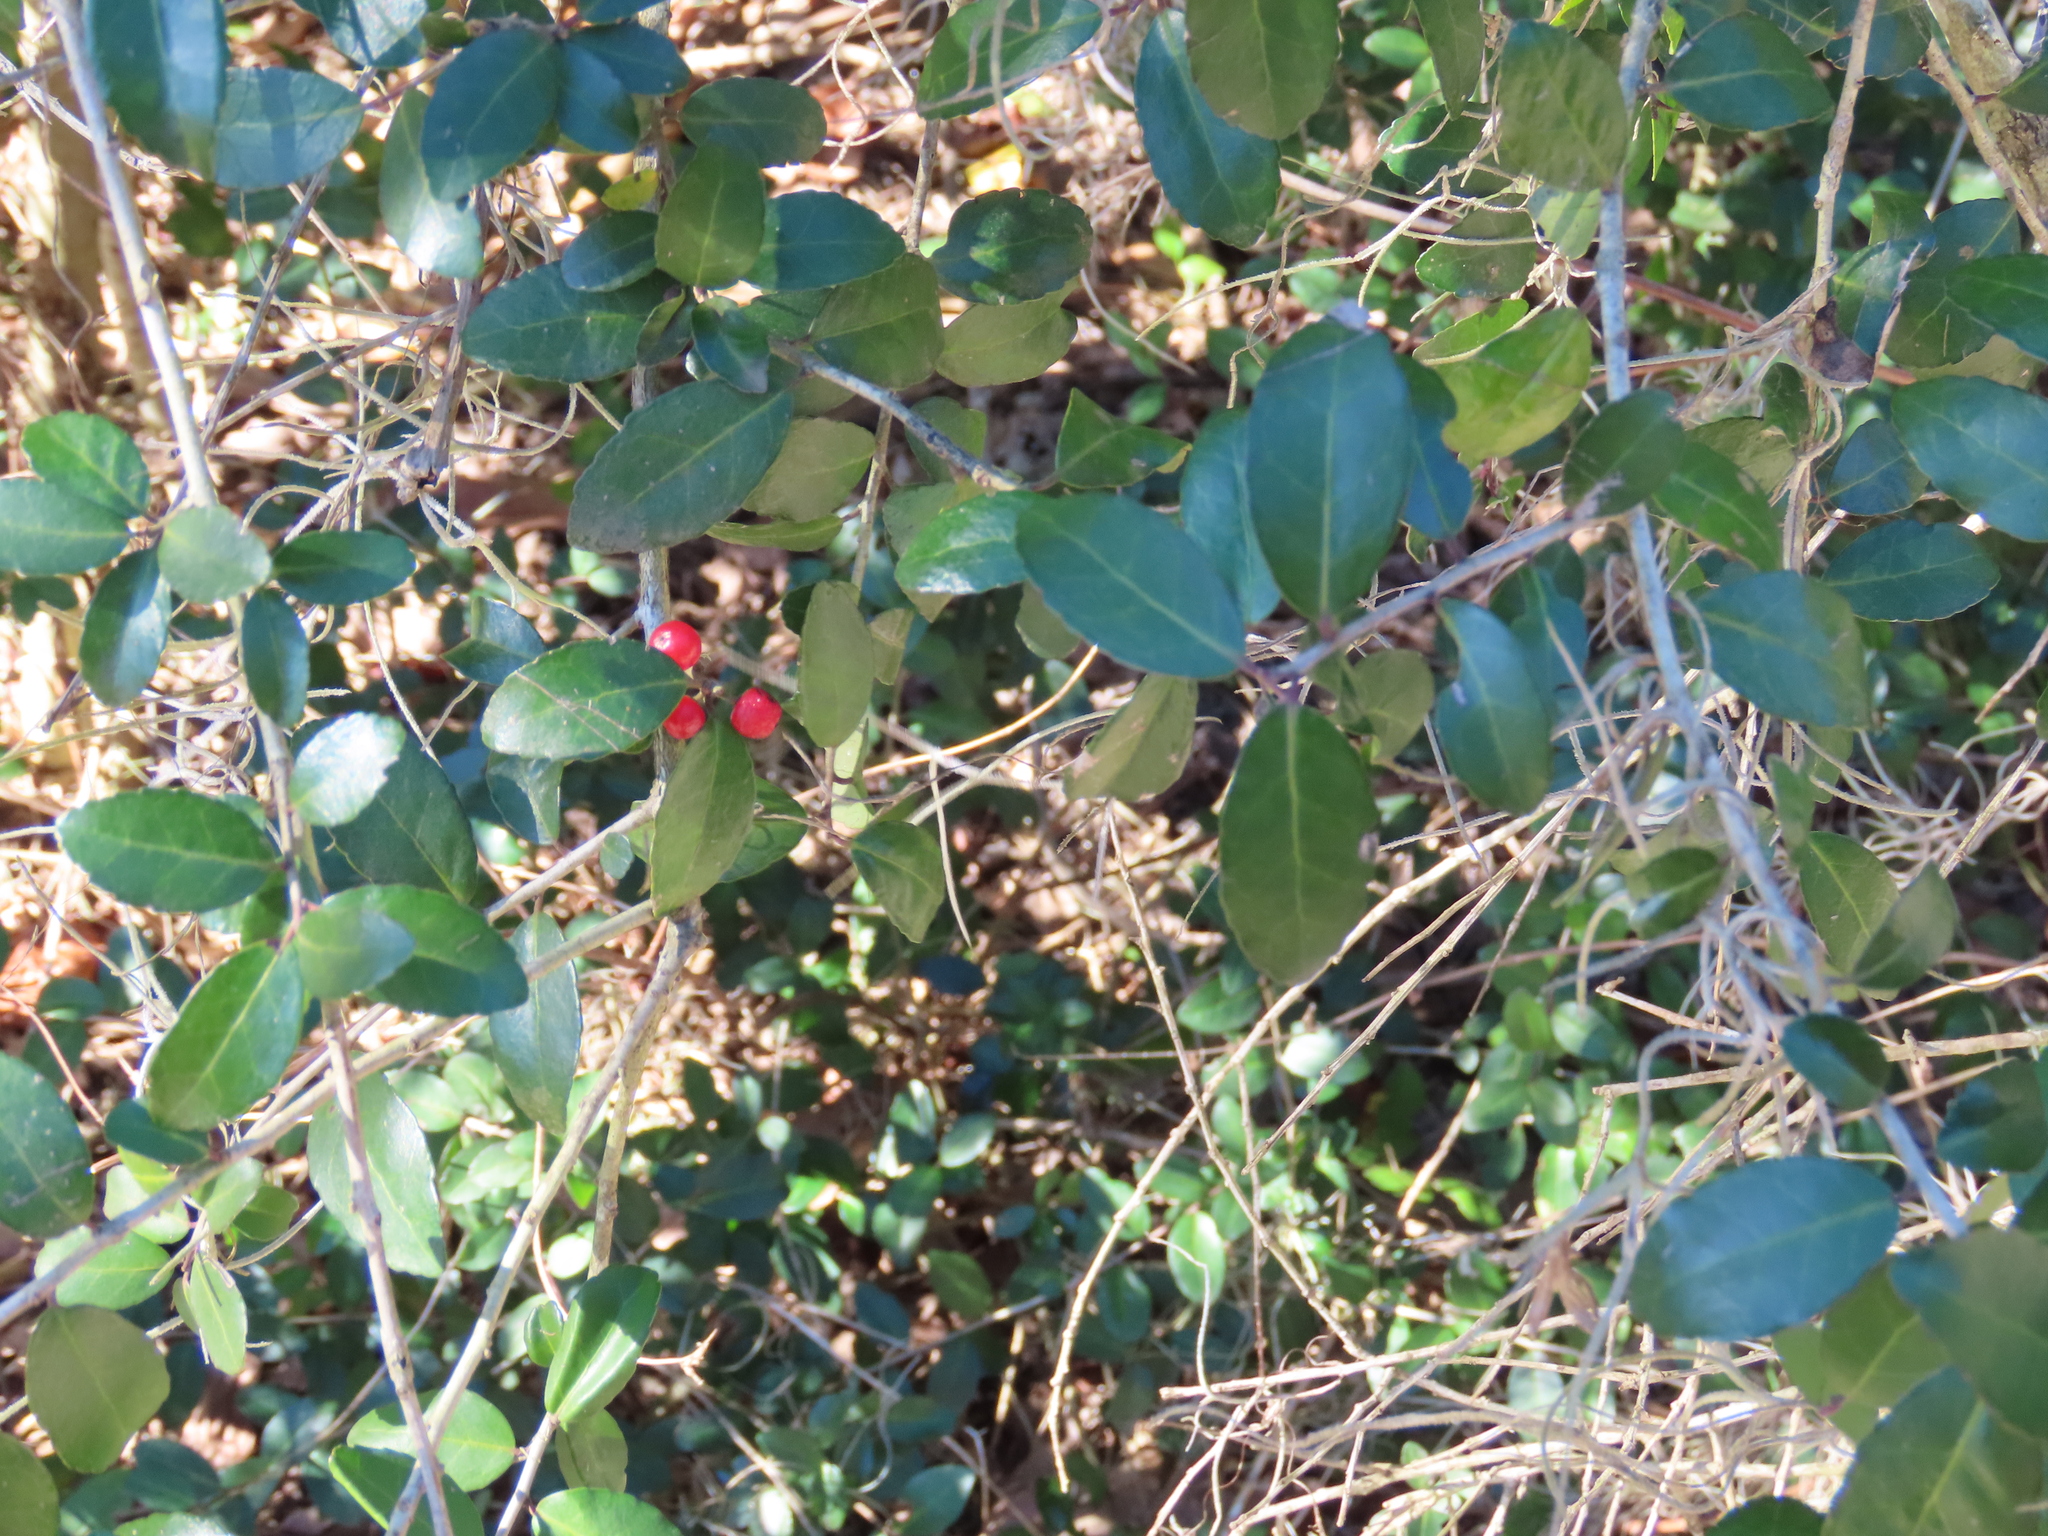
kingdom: Plantae
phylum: Tracheophyta
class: Magnoliopsida
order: Aquifoliales
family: Aquifoliaceae
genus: Ilex
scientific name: Ilex vomitoria
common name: Yaupon holly
